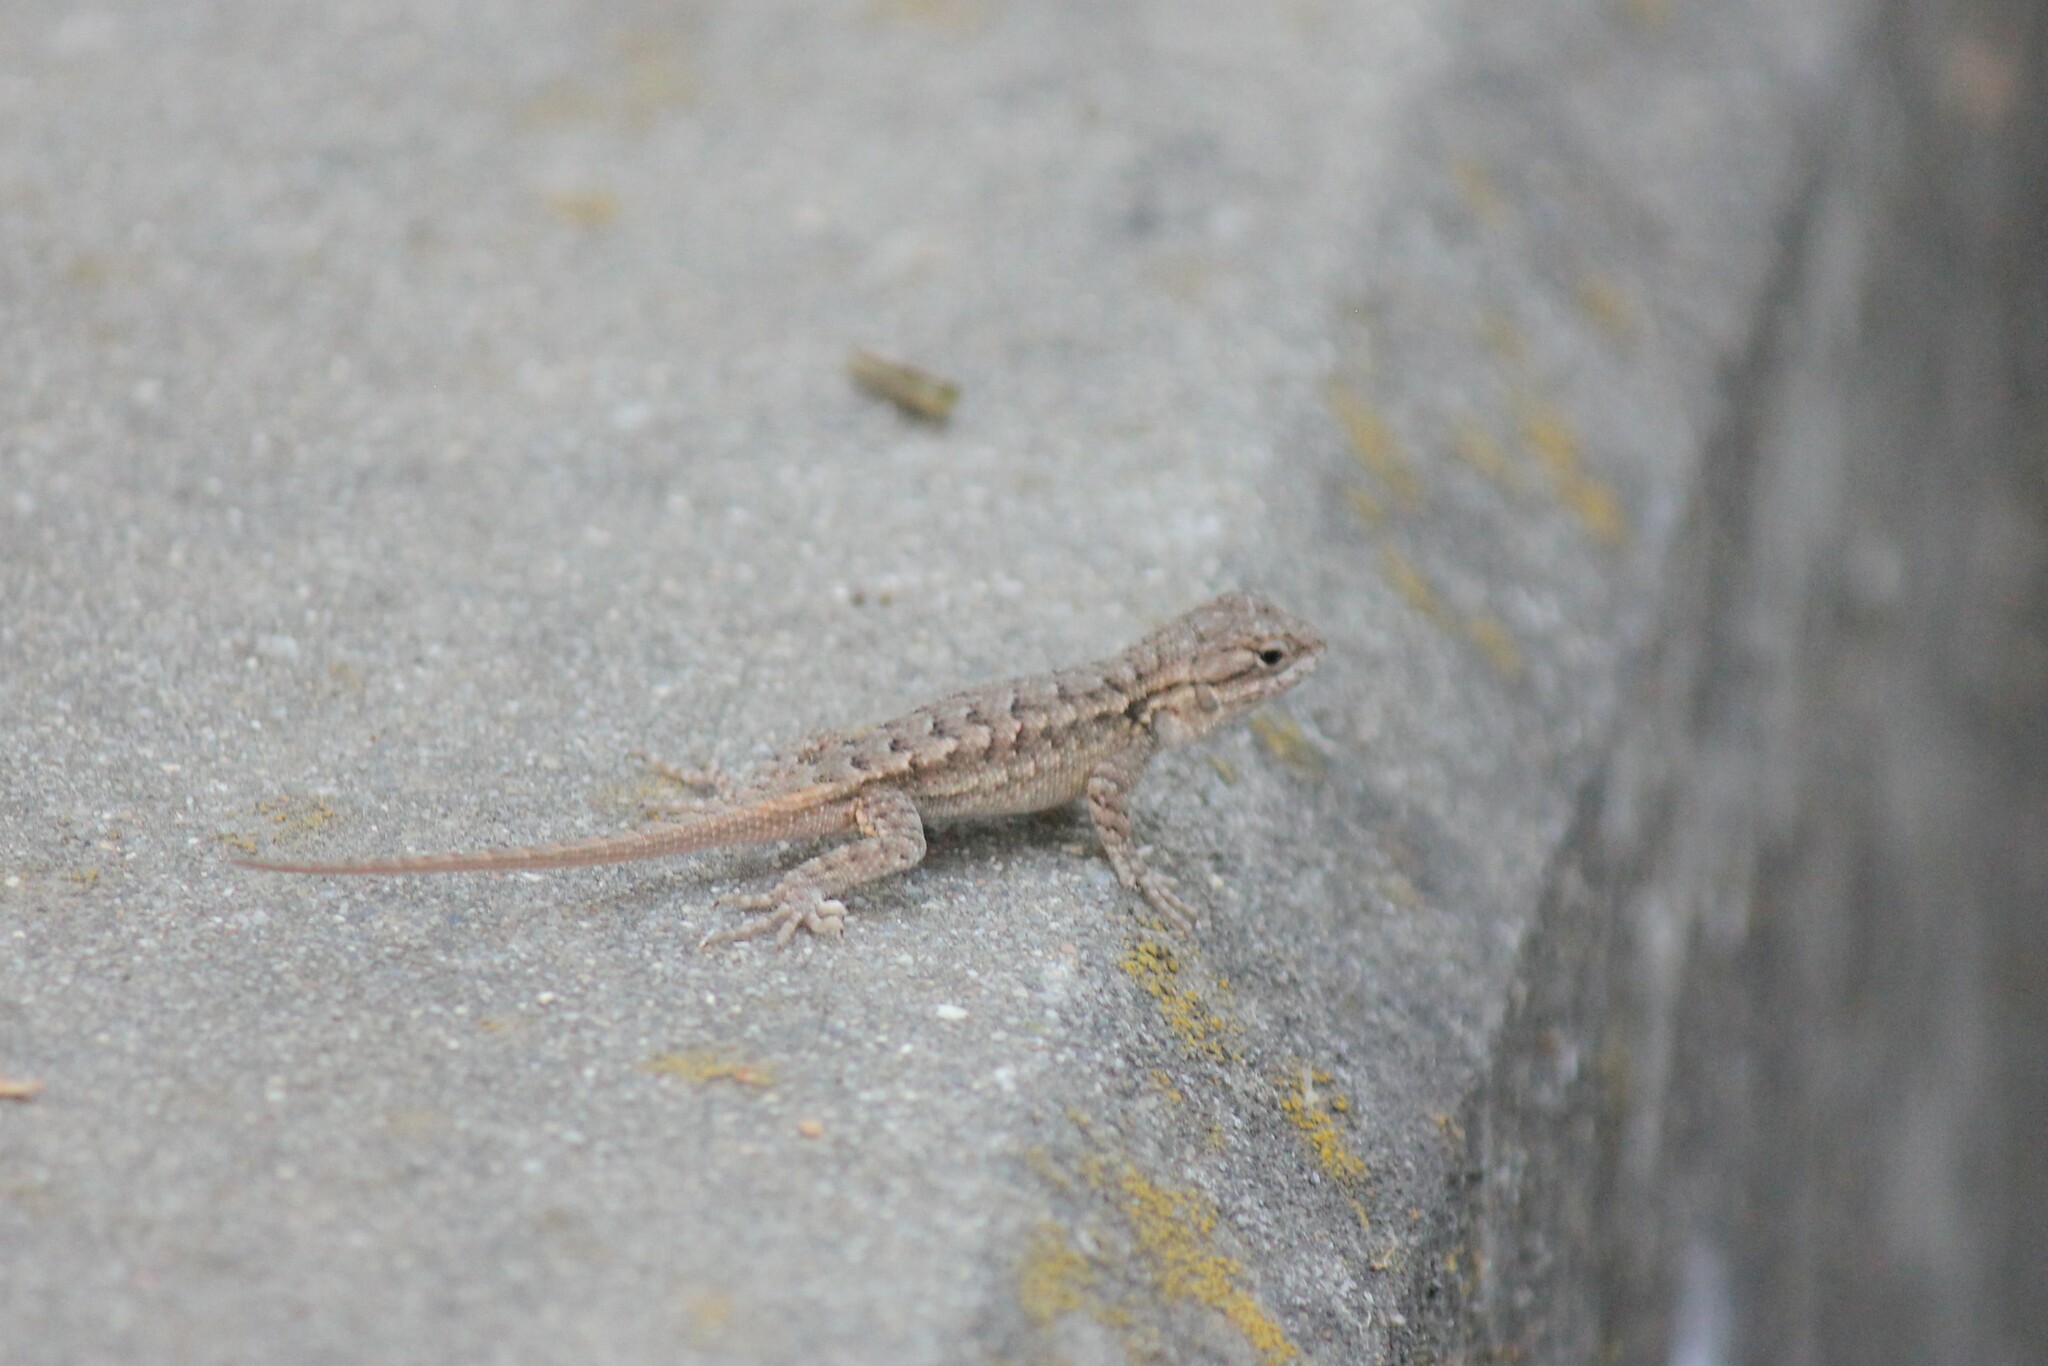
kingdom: Animalia
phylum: Chordata
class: Squamata
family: Phrynosomatidae
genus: Sceloporus
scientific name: Sceloporus occidentalis
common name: Western fence lizard
